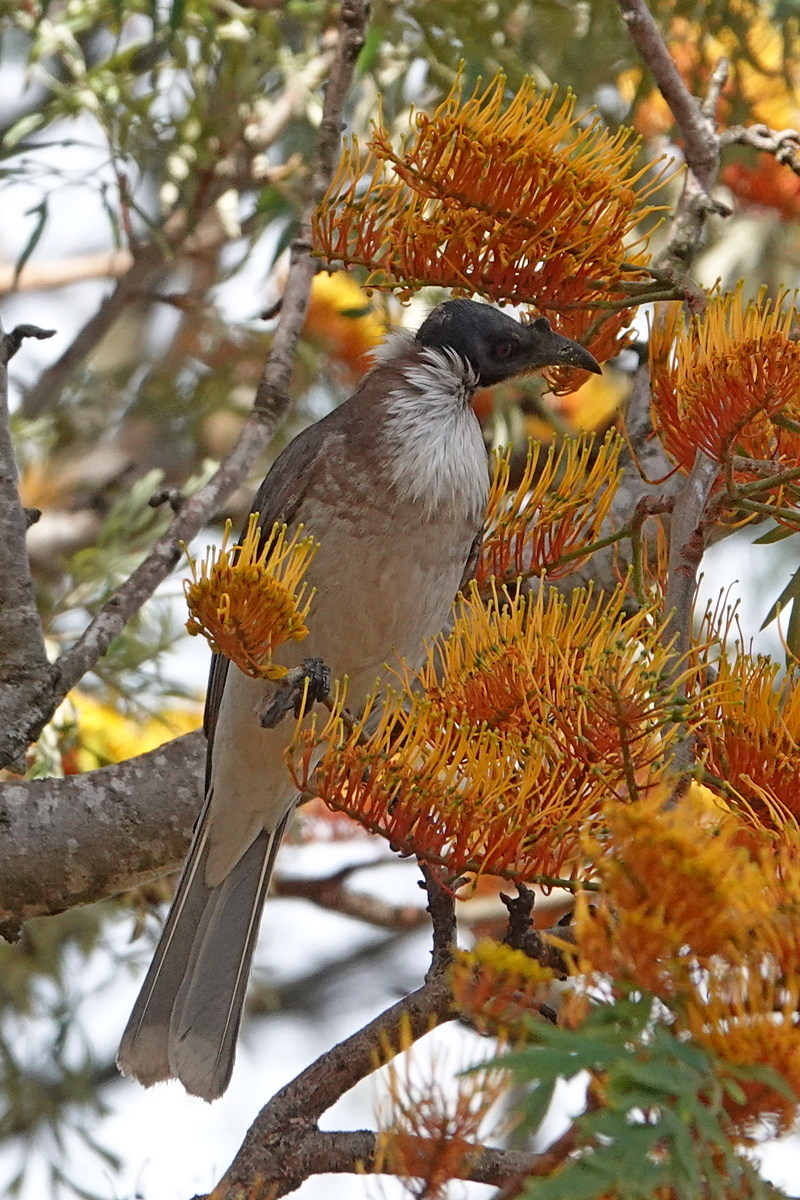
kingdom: Animalia
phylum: Chordata
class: Aves
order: Passeriformes
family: Meliphagidae
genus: Philemon
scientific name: Philemon corniculatus
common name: Noisy friarbird
